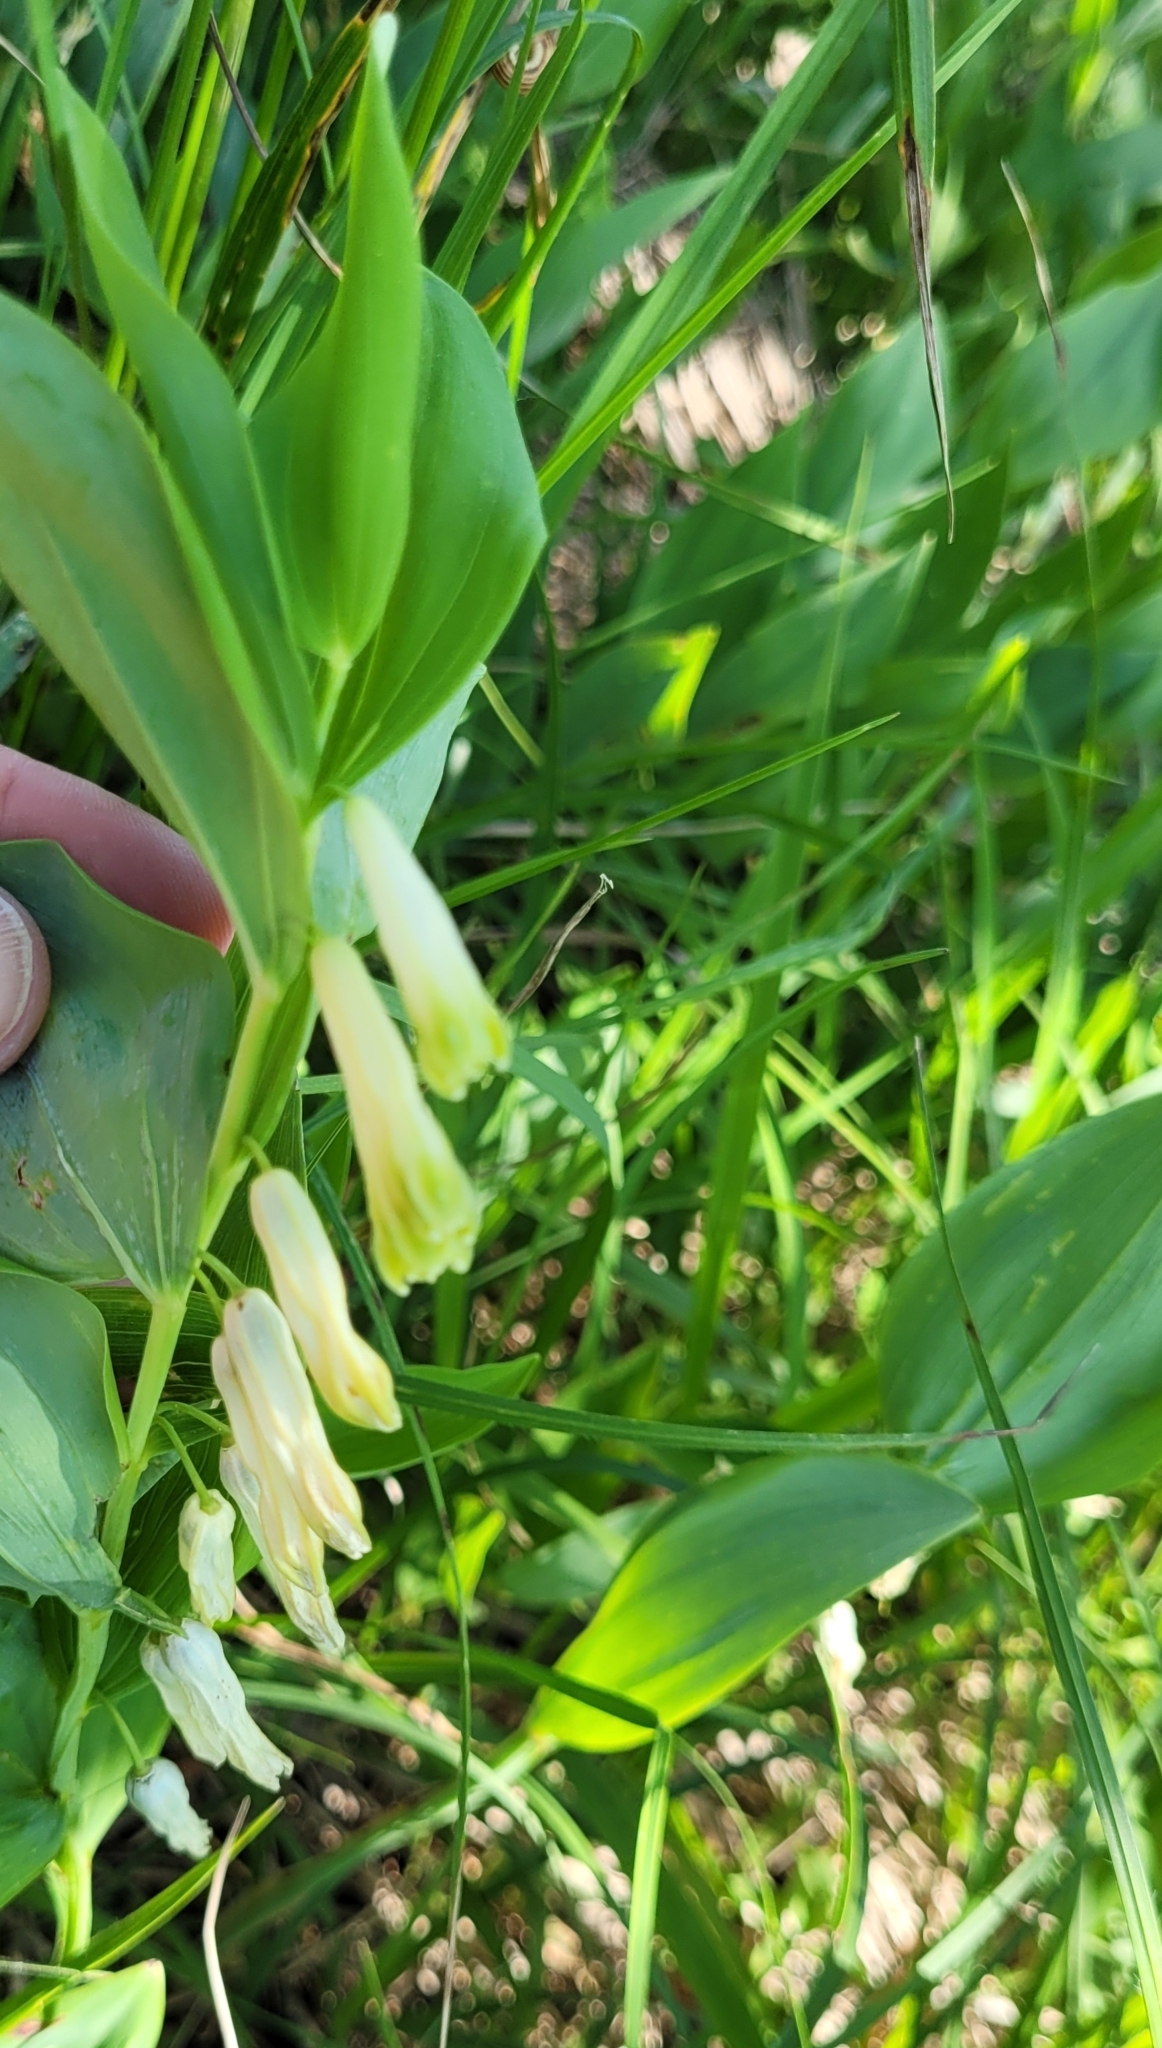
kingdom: Plantae
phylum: Tracheophyta
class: Liliopsida
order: Asparagales
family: Asparagaceae
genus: Polygonatum
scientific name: Polygonatum odoratum
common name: Angular solomon's-seal
